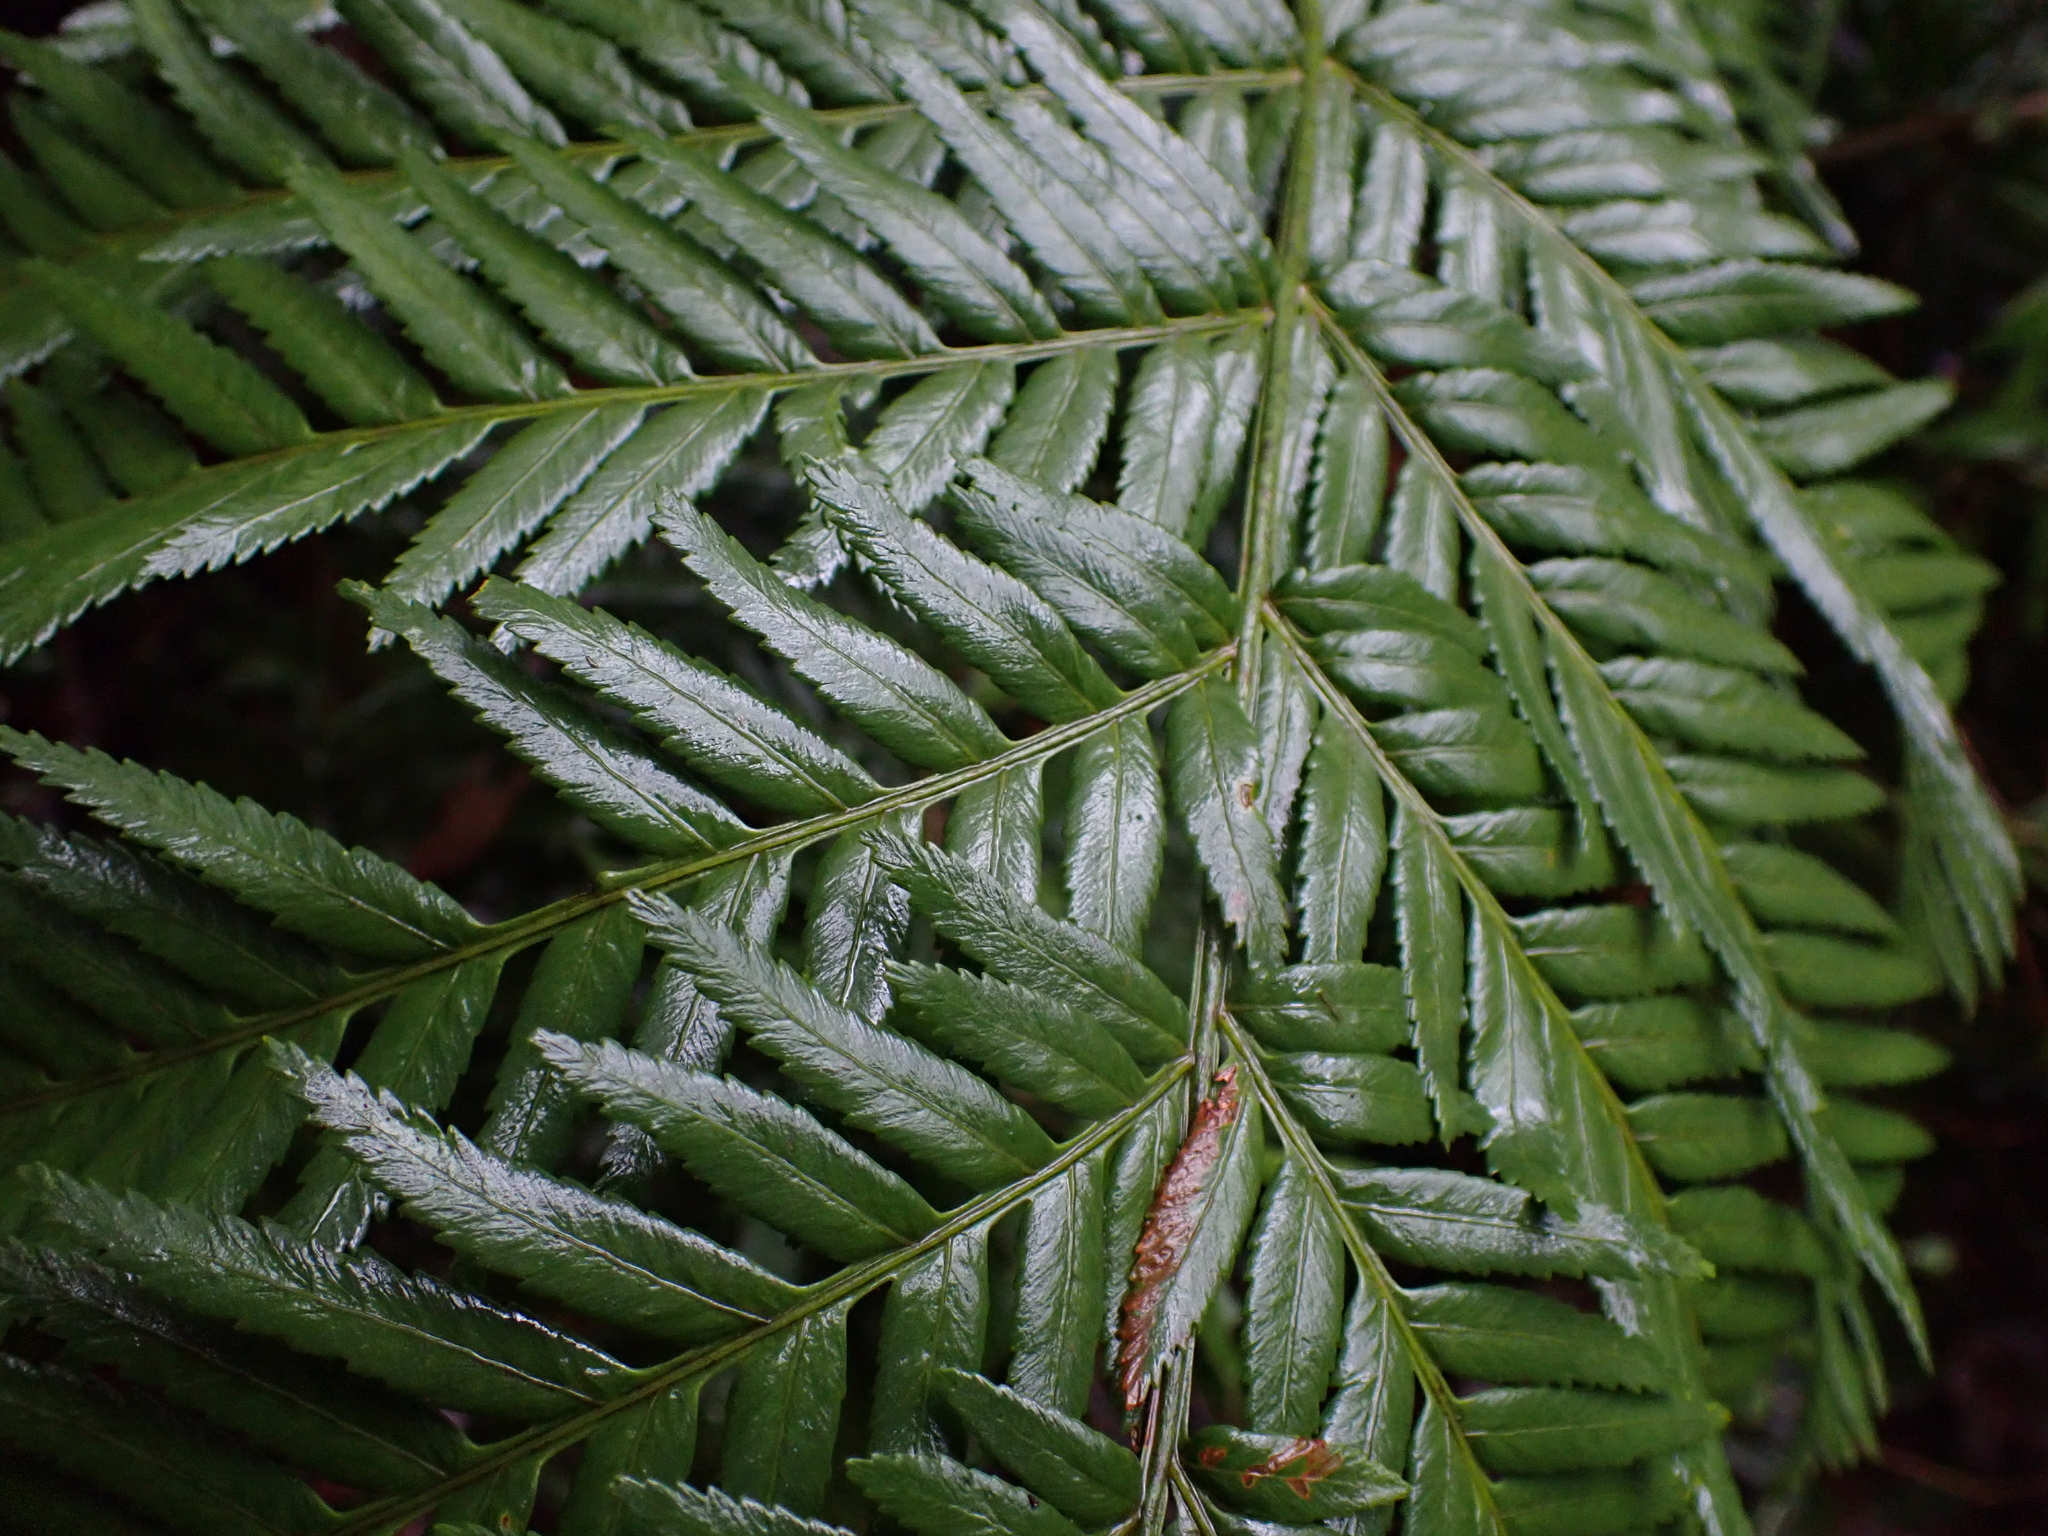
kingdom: Plantae
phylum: Tracheophyta
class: Polypodiopsida
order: Osmundales
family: Osmundaceae
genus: Todea
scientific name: Todea barbara
